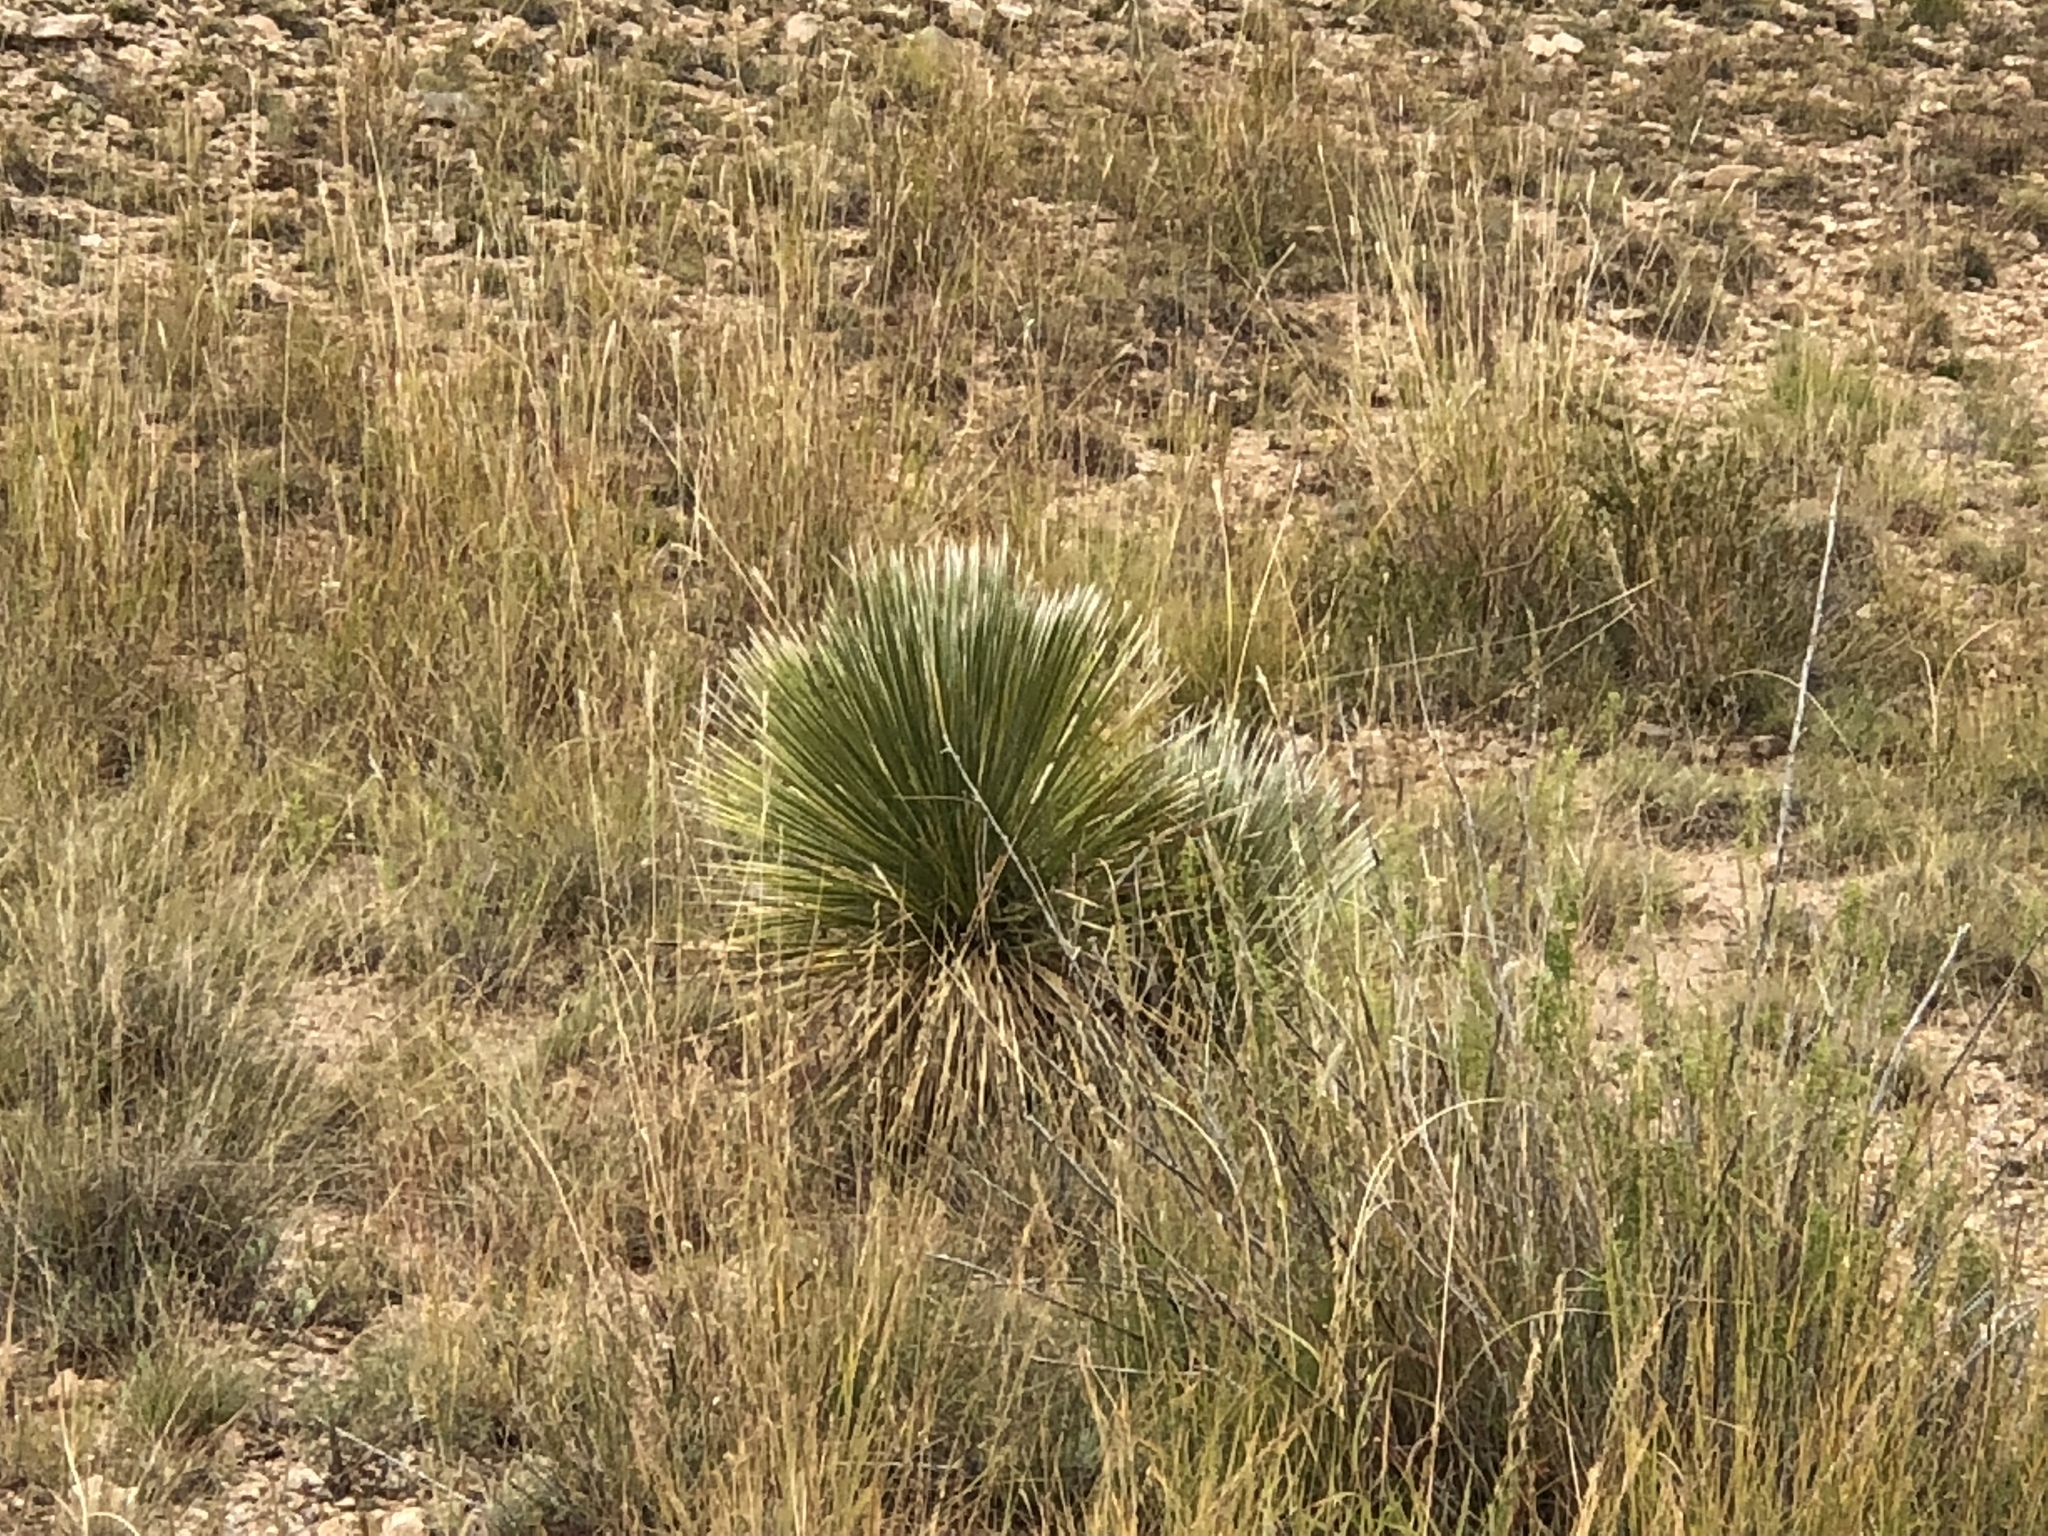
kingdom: Plantae
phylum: Tracheophyta
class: Liliopsida
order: Asparagales
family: Asparagaceae
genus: Dasylirion
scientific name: Dasylirion wheeleri
